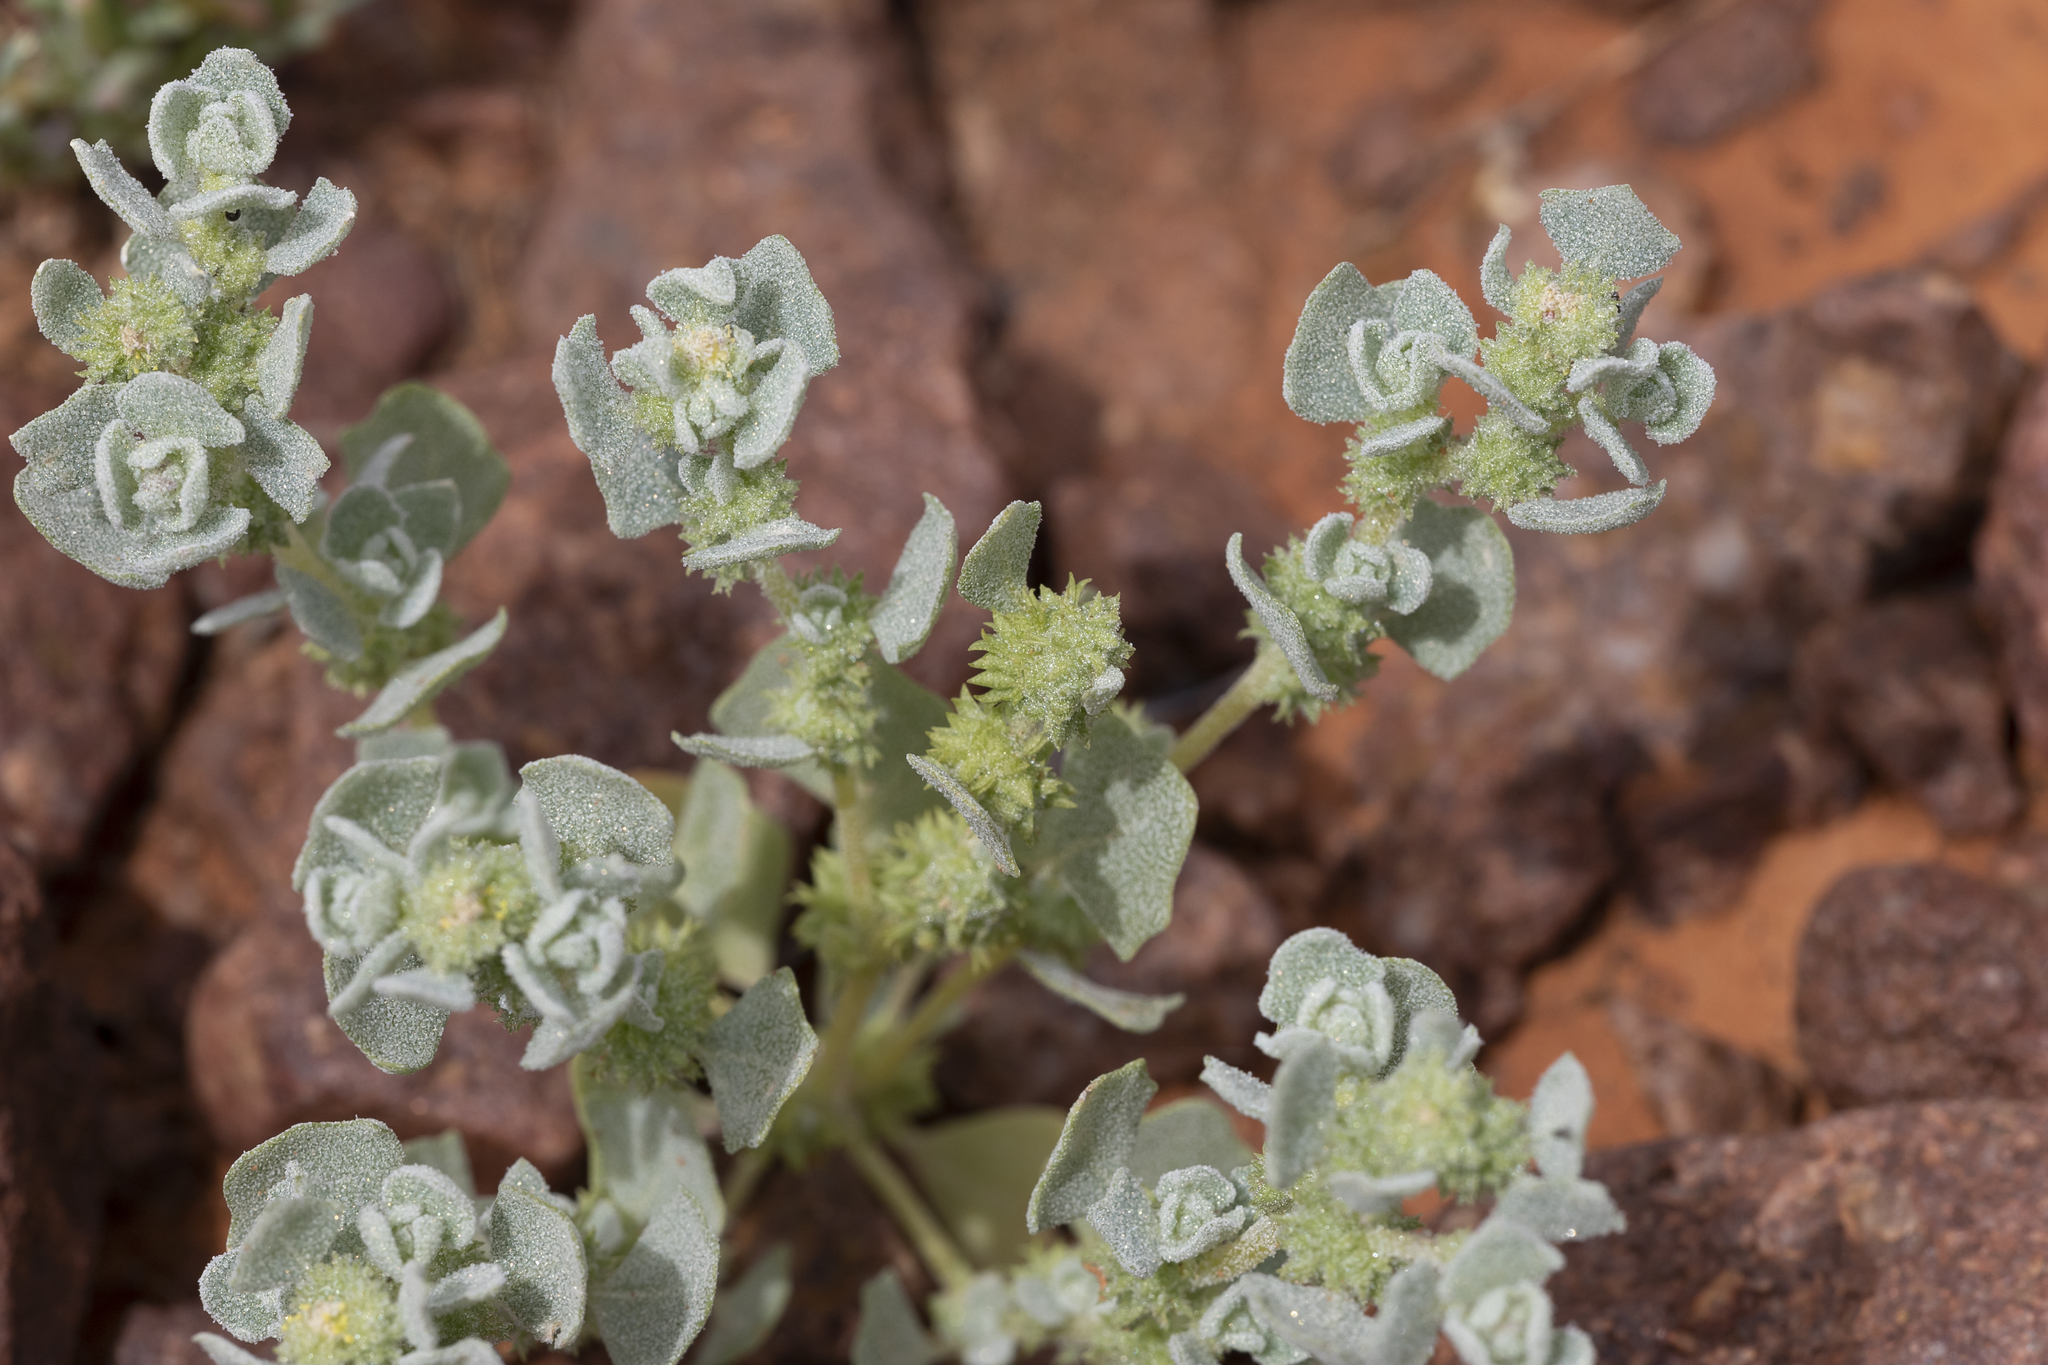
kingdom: Plantae
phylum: Tracheophyta
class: Magnoliopsida
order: Caryophyllales
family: Amaranthaceae
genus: Atriplex
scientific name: Atriplex fissivalvis
